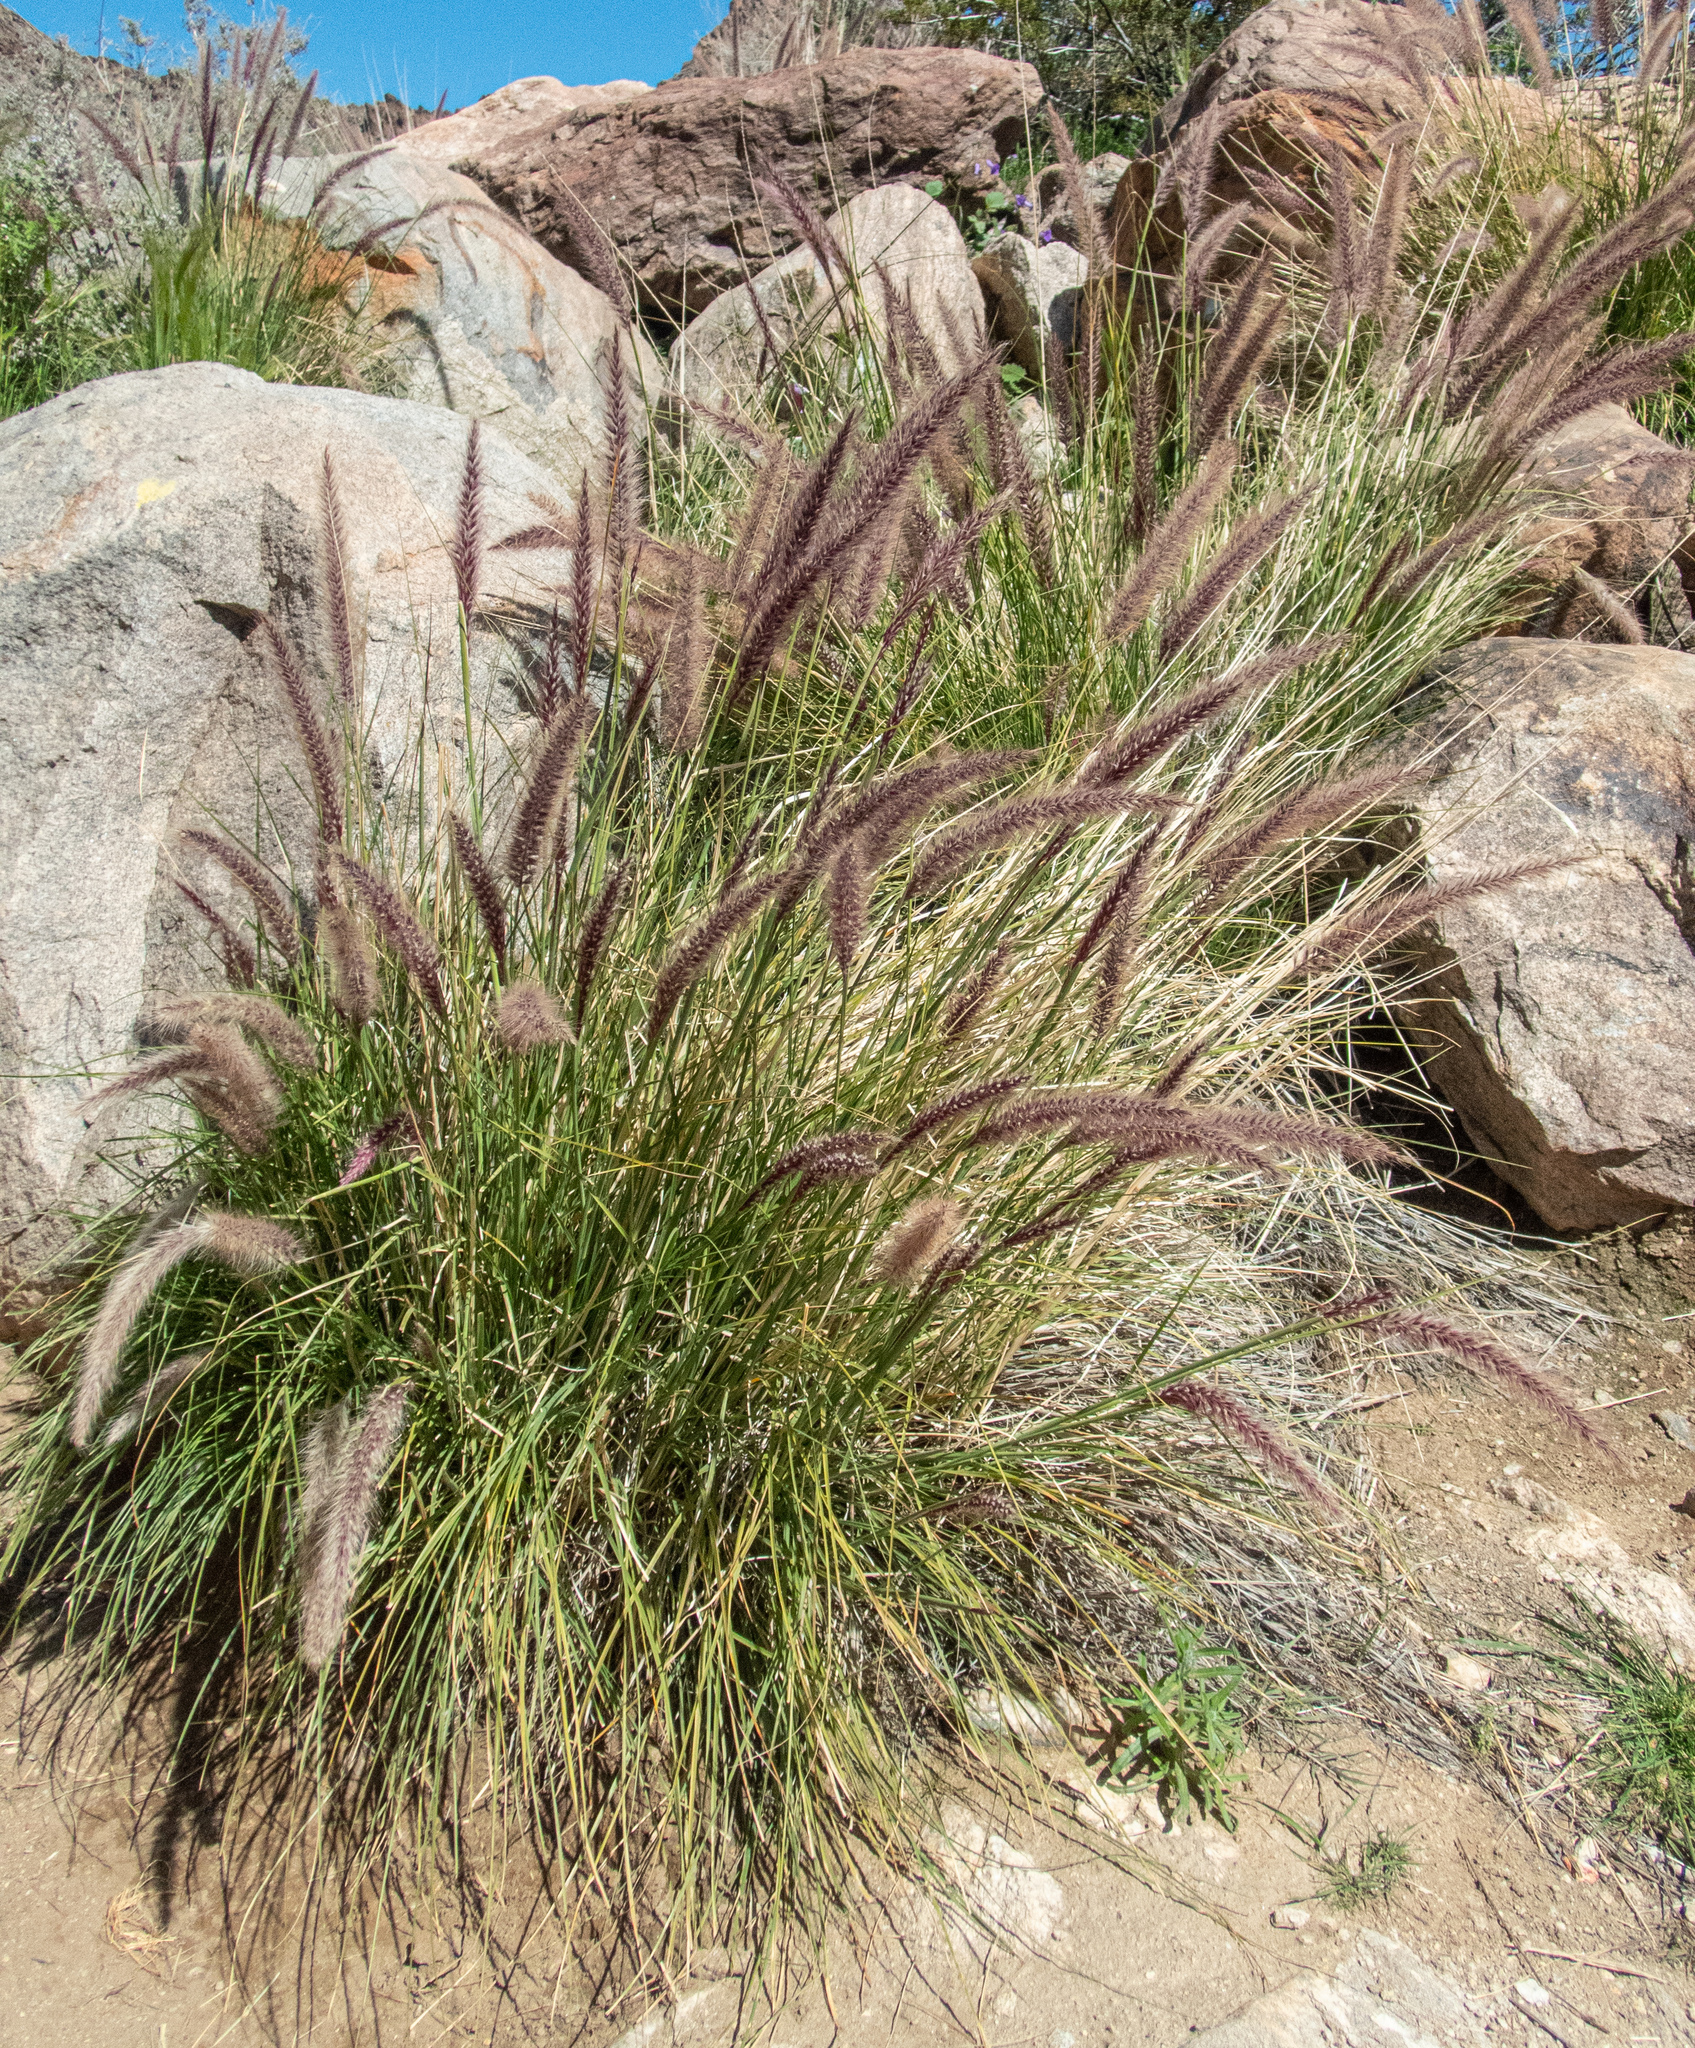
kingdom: Plantae
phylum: Tracheophyta
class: Liliopsida
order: Poales
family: Poaceae
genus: Cenchrus
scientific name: Cenchrus setaceus
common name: Crimson fountaingrass
